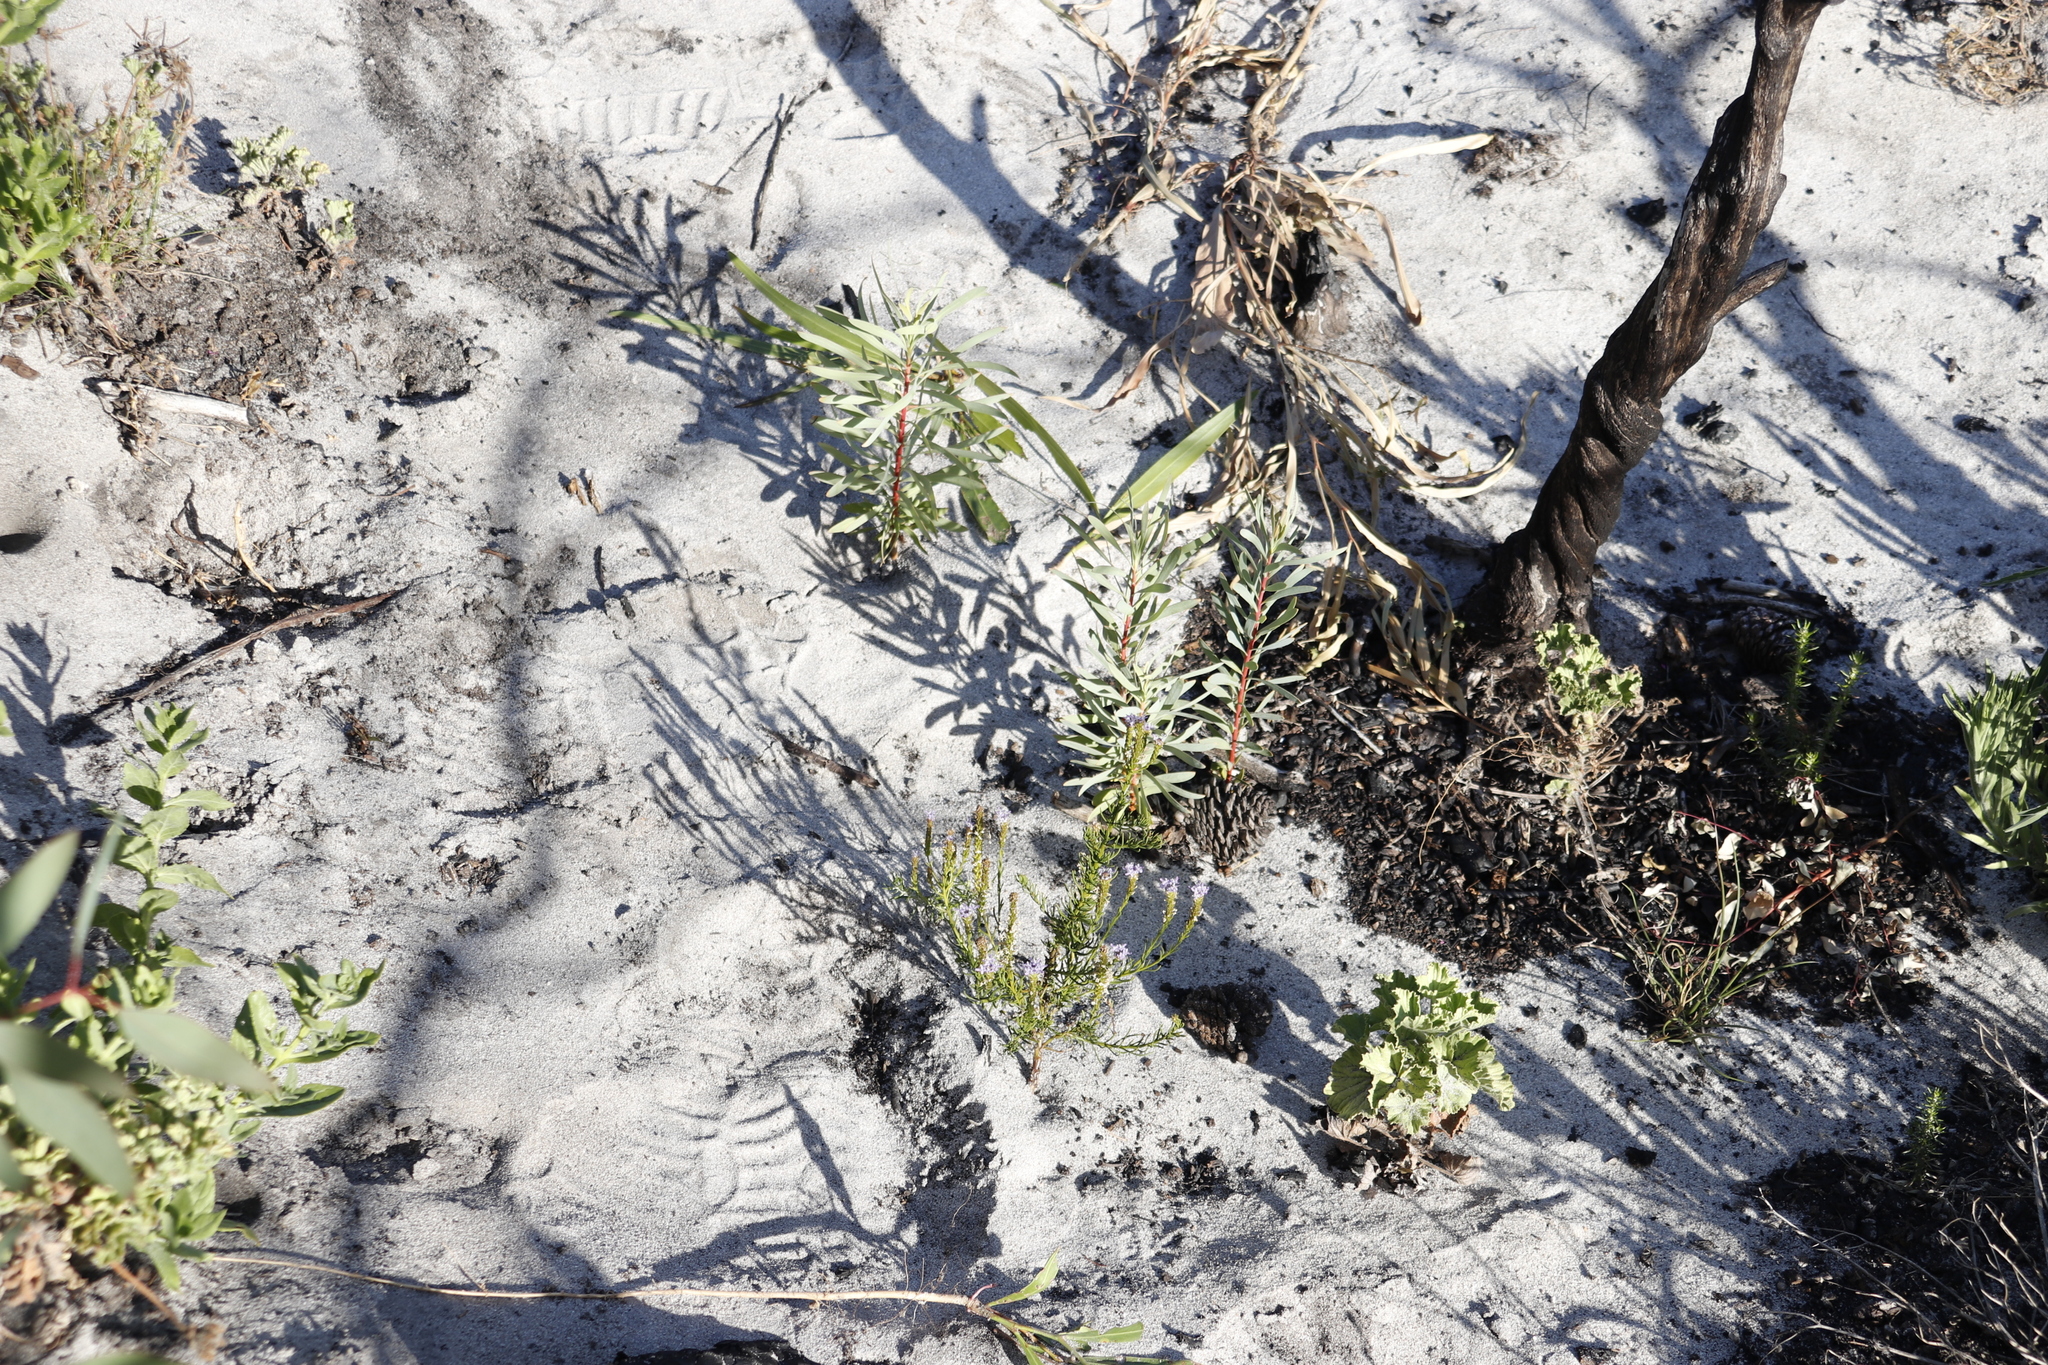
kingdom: Plantae
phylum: Tracheophyta
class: Magnoliopsida
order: Proteales
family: Proteaceae
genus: Protea
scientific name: Protea repens
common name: Sugarbush
